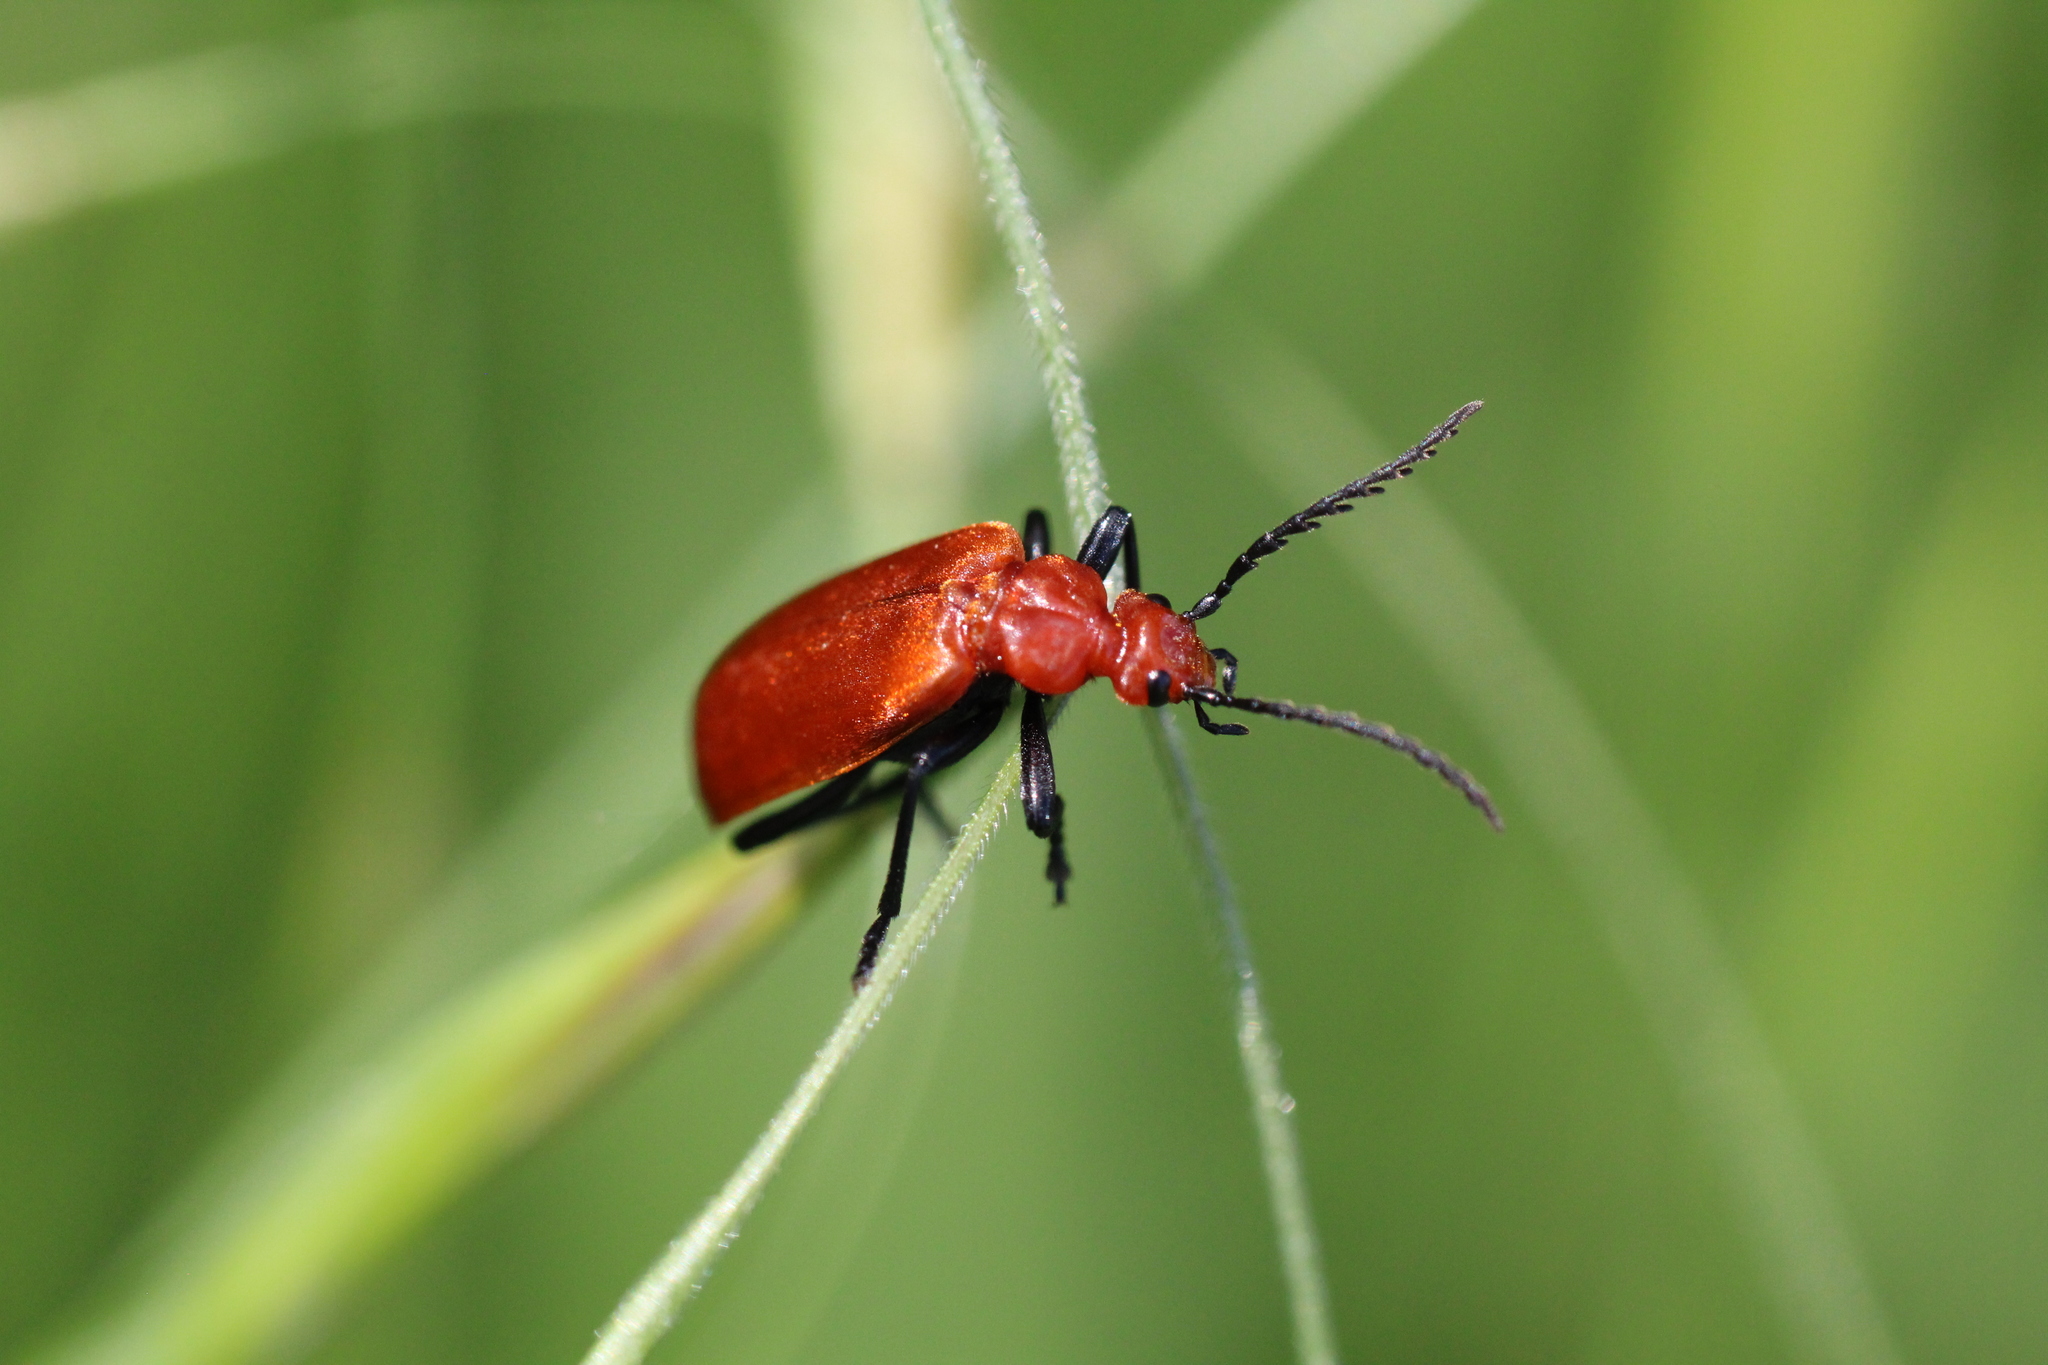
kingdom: Animalia
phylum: Arthropoda
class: Insecta
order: Coleoptera
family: Pyrochroidae
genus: Pyrochroa
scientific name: Pyrochroa serraticornis
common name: Red-headed cardinal beetle
